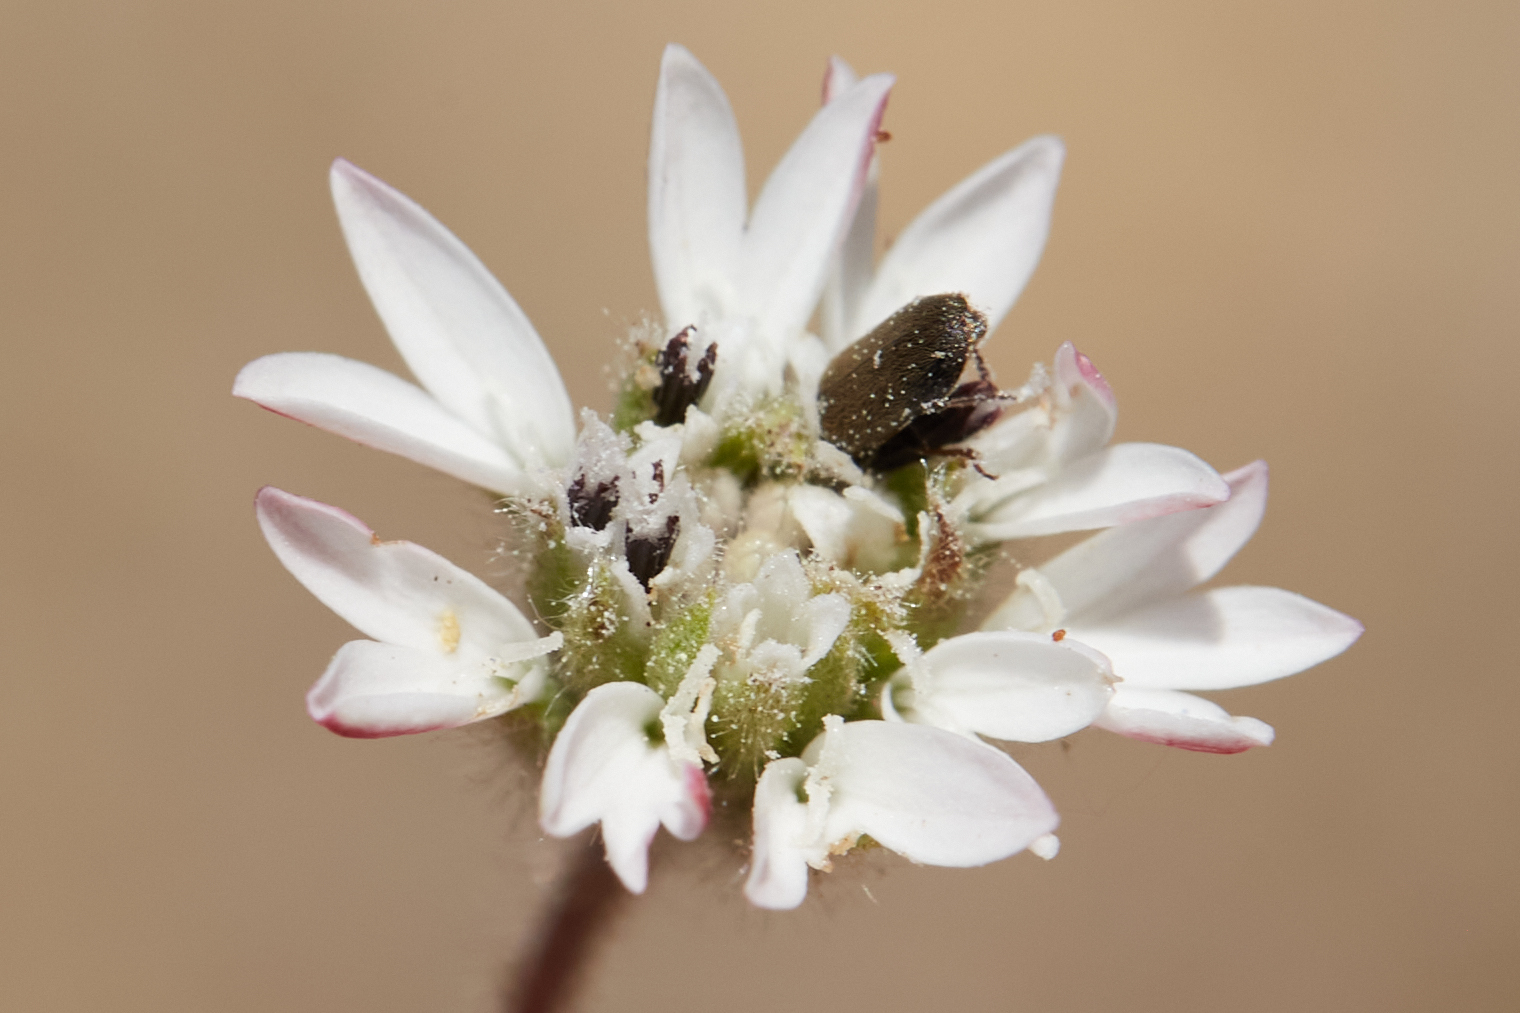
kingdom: Plantae
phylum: Tracheophyta
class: Magnoliopsida
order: Asterales
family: Asteraceae
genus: Holozonia
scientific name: Holozonia filipes
